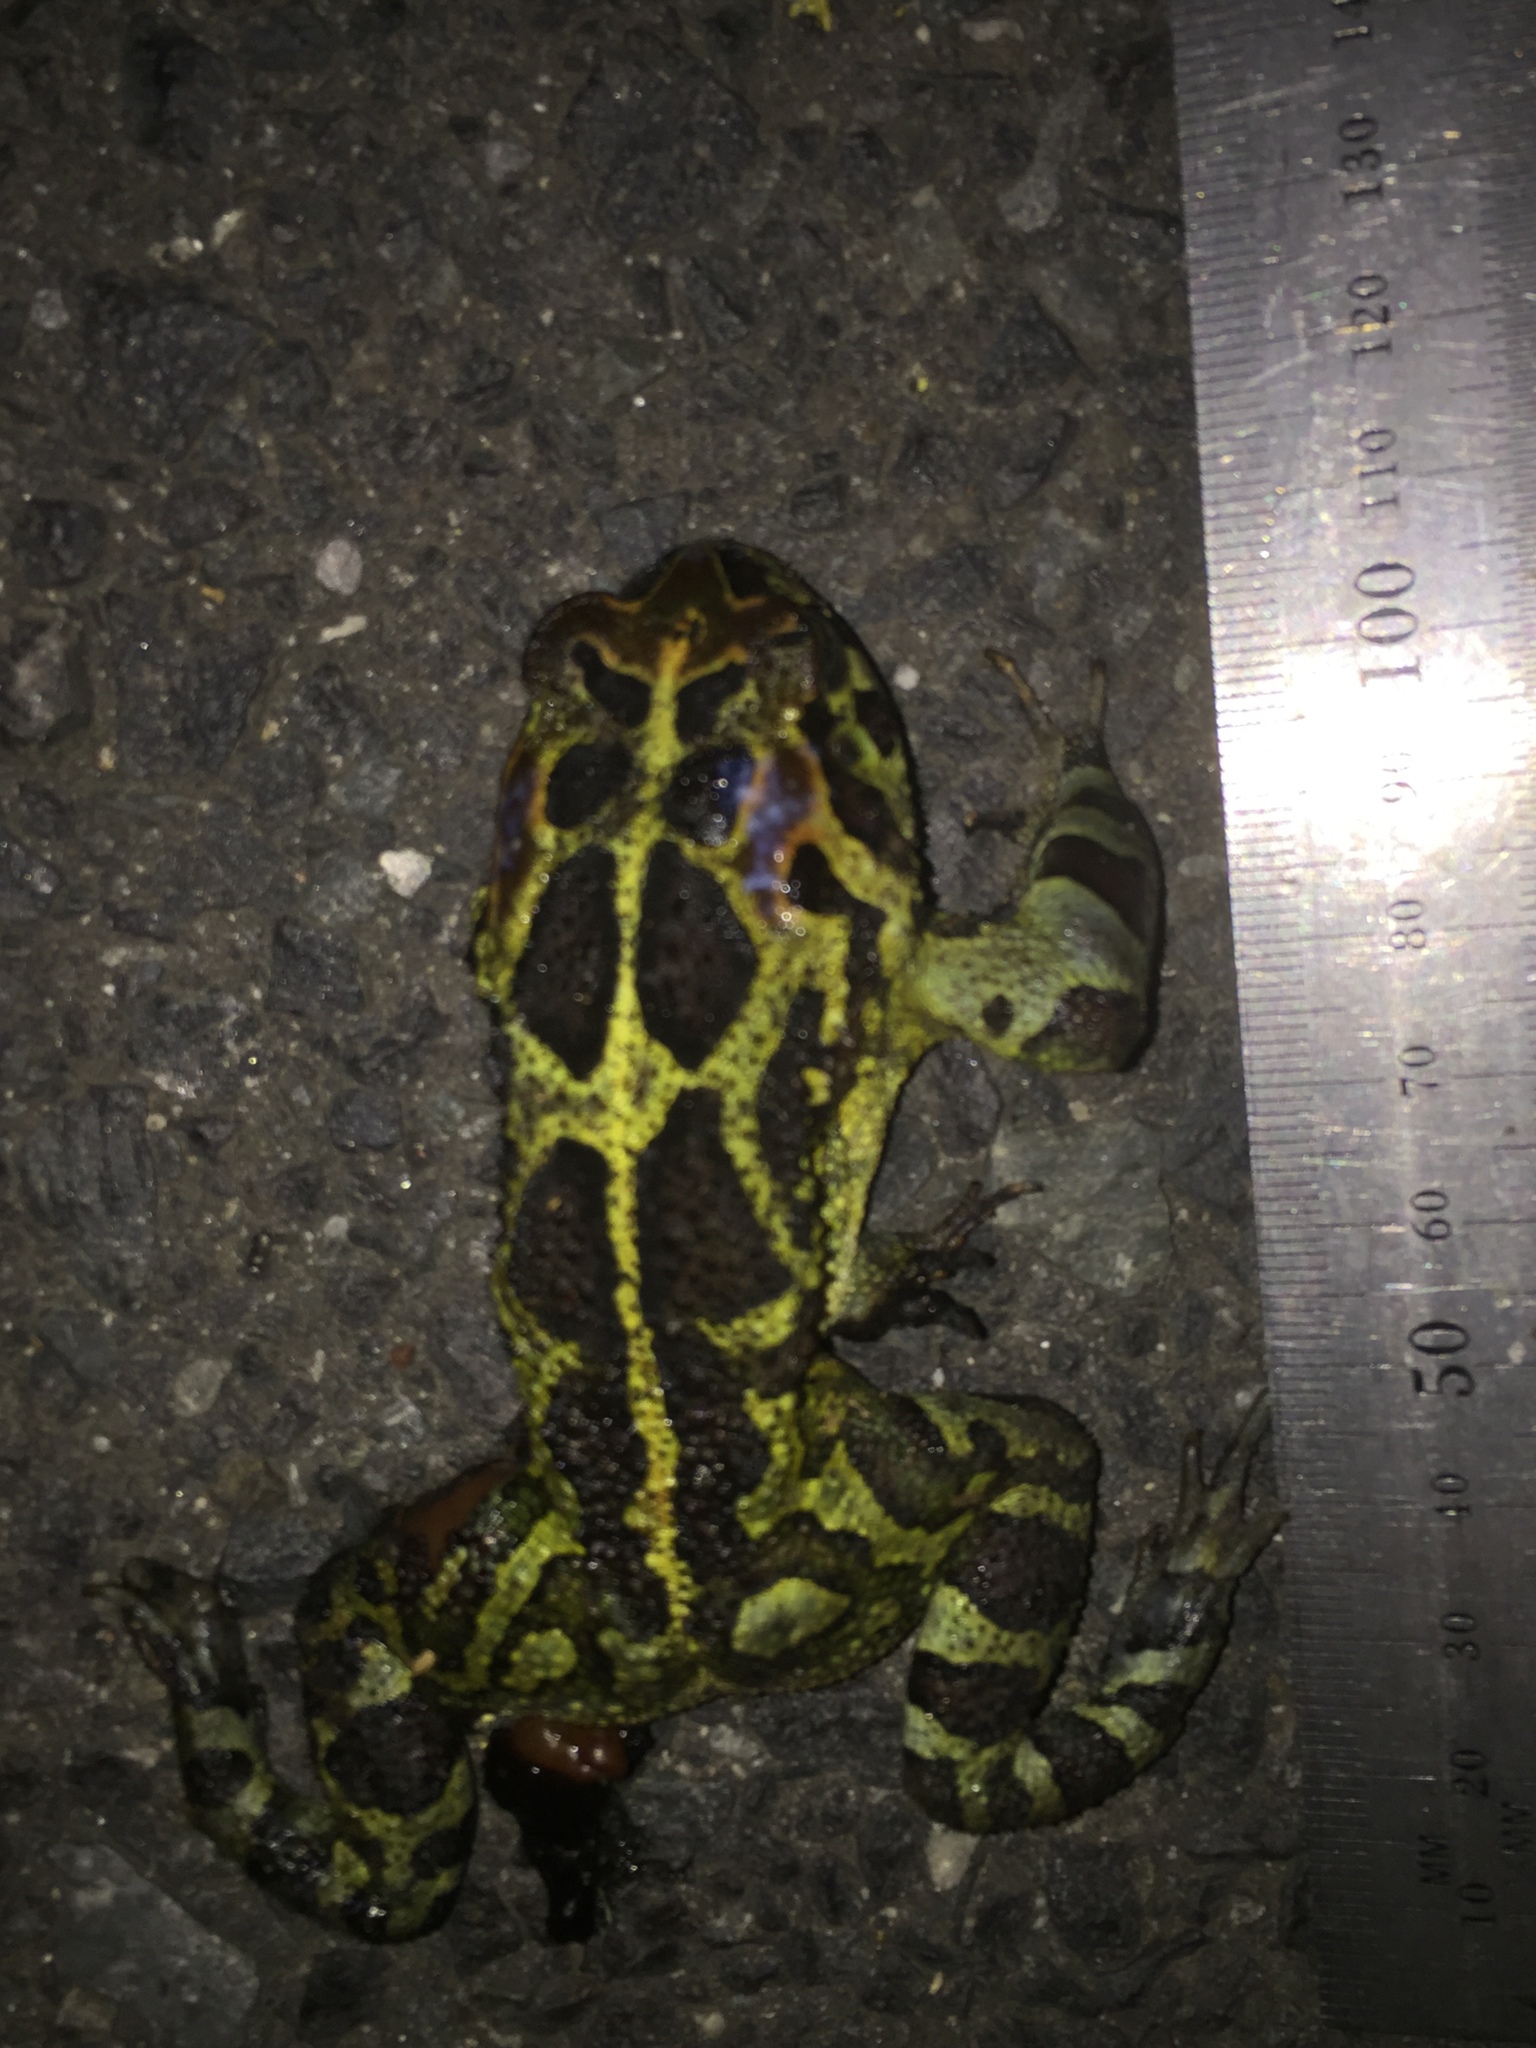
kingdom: Animalia
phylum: Chordata
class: Amphibia
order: Anura
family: Bufonidae
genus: Sclerophrys
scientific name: Sclerophrys pantherina
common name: Panther toad
